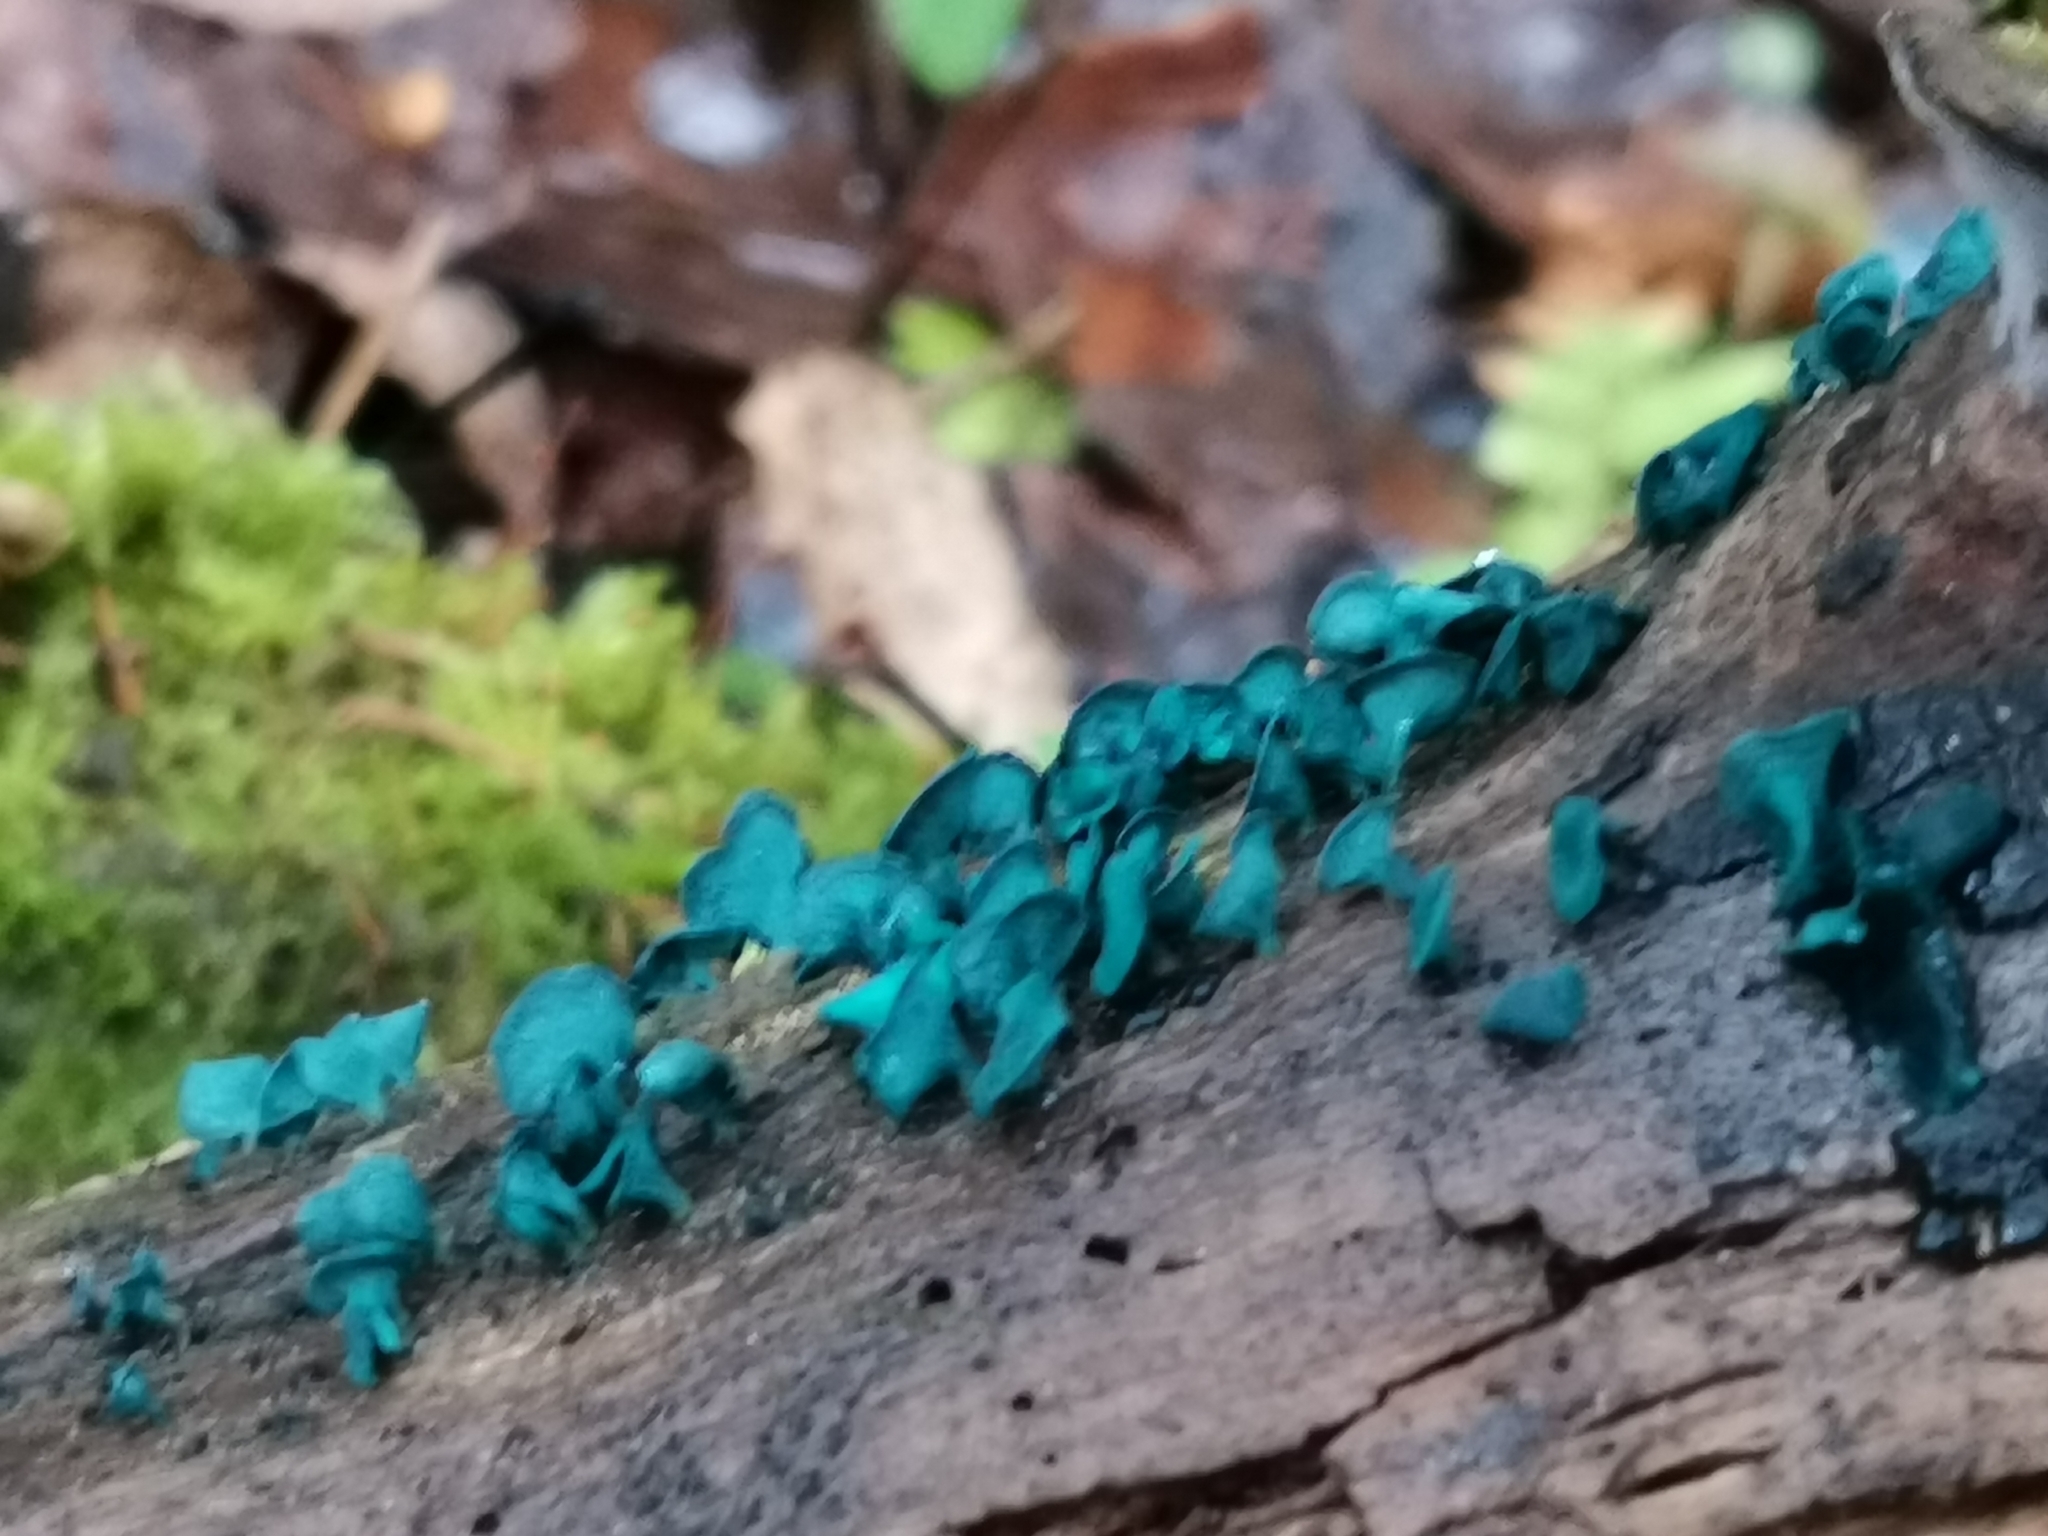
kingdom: Fungi
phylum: Ascomycota
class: Leotiomycetes
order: Helotiales
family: Chlorociboriaceae
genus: Chlorociboria
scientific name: Chlorociboria aeruginascens
